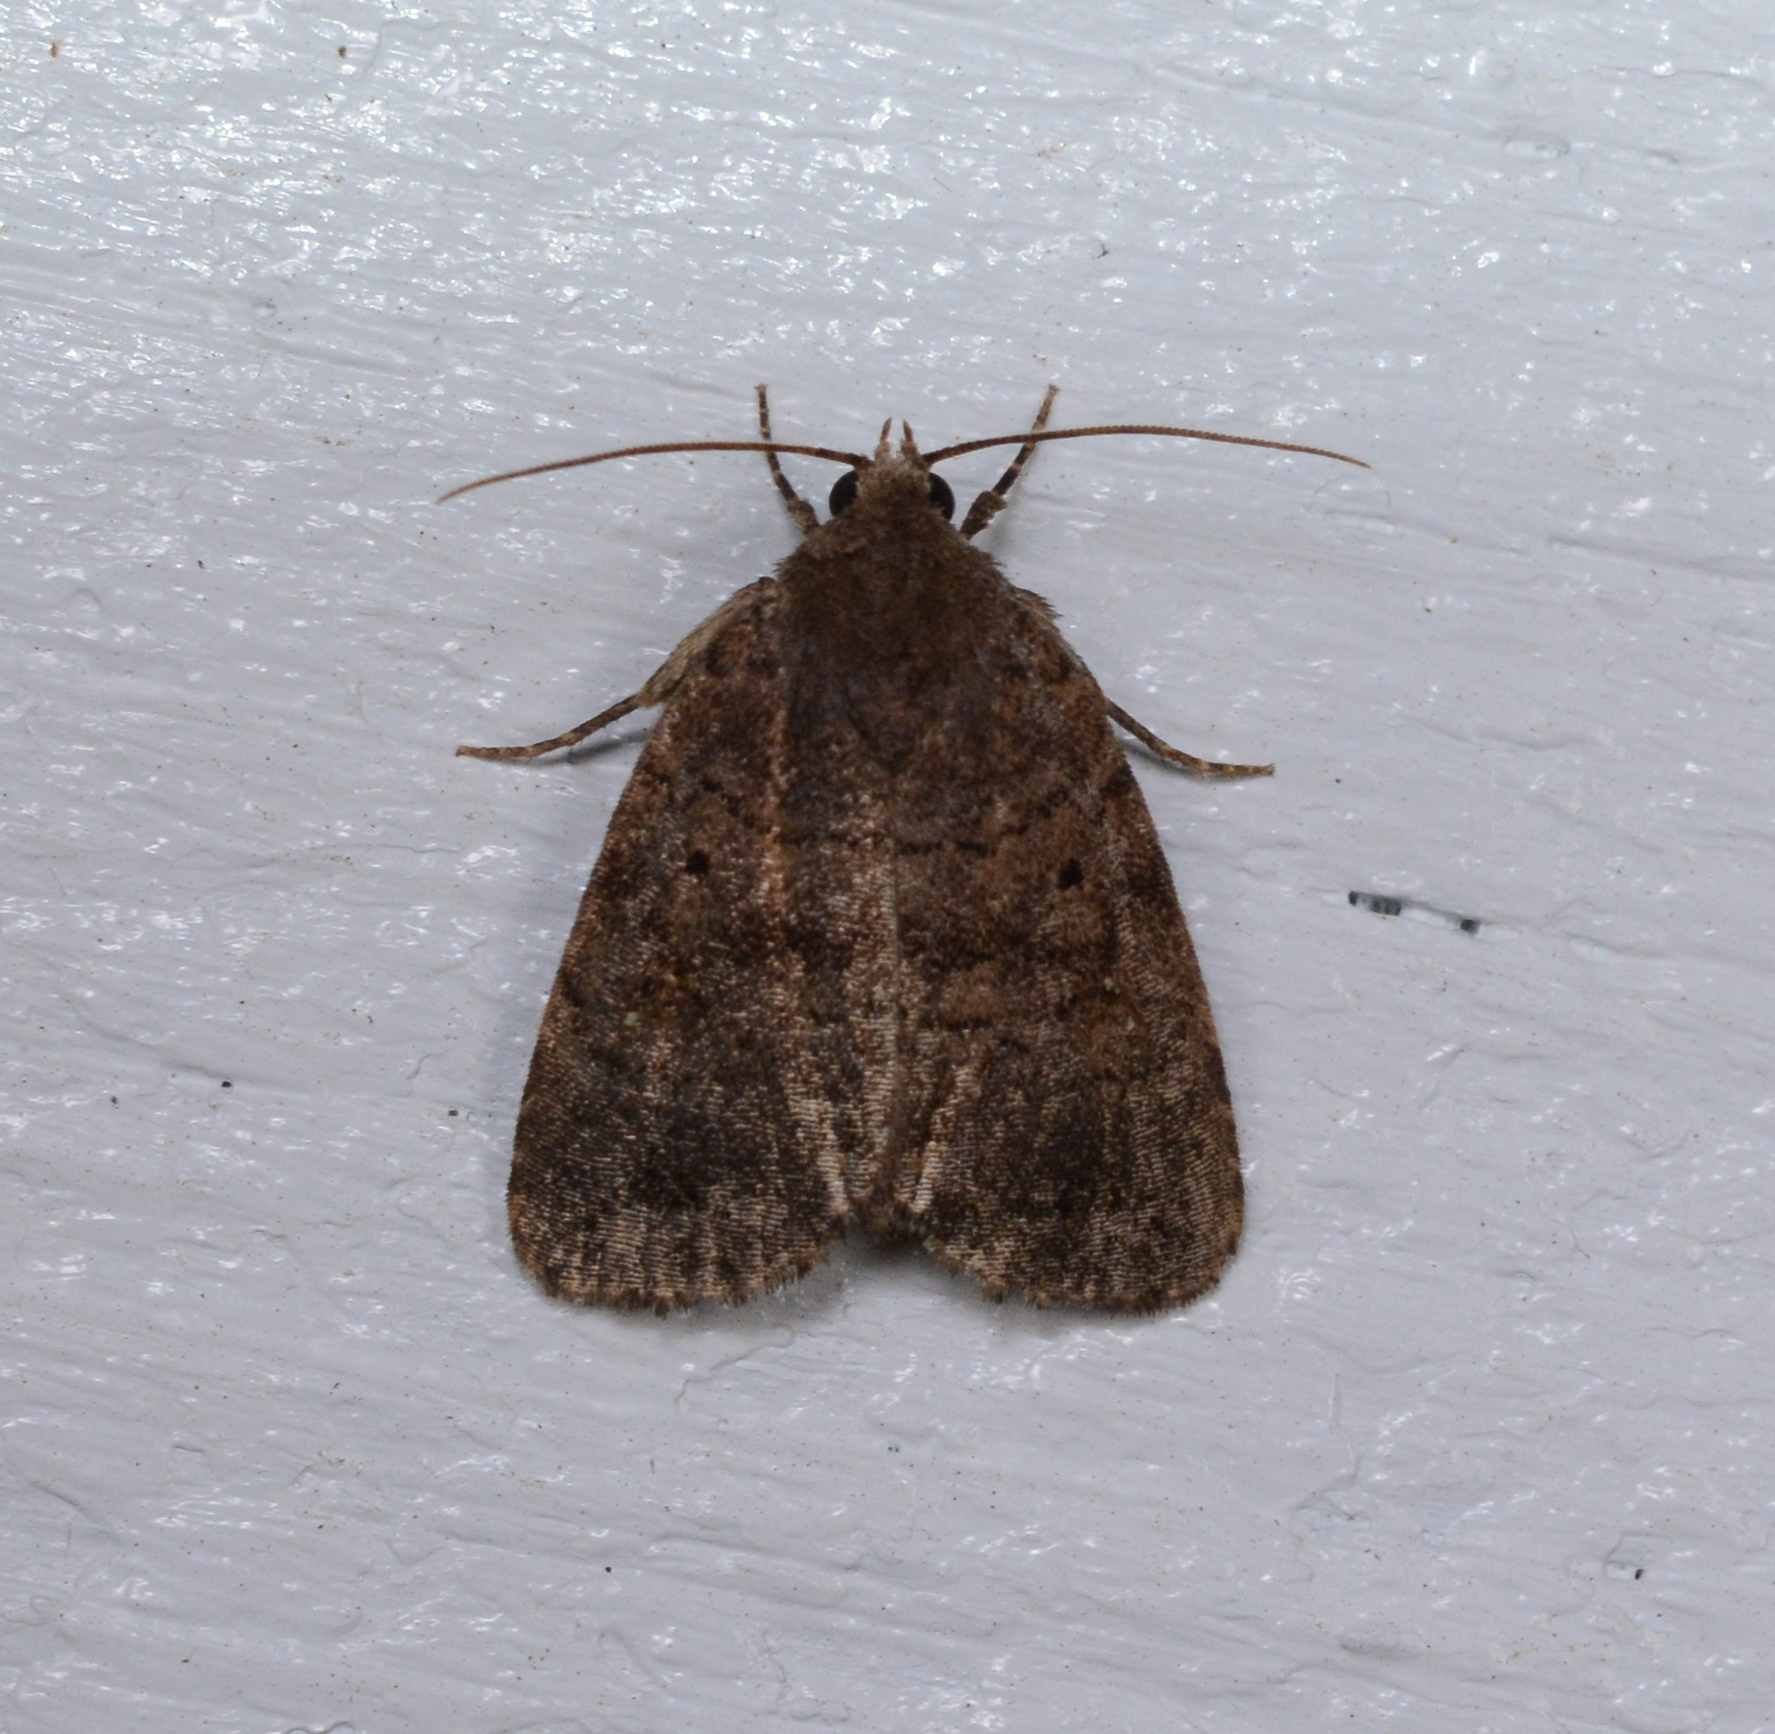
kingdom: Animalia
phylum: Arthropoda
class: Insecta
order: Lepidoptera
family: Noctuidae
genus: Athetis
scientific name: Athetis tarda
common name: Slowpoke moth
